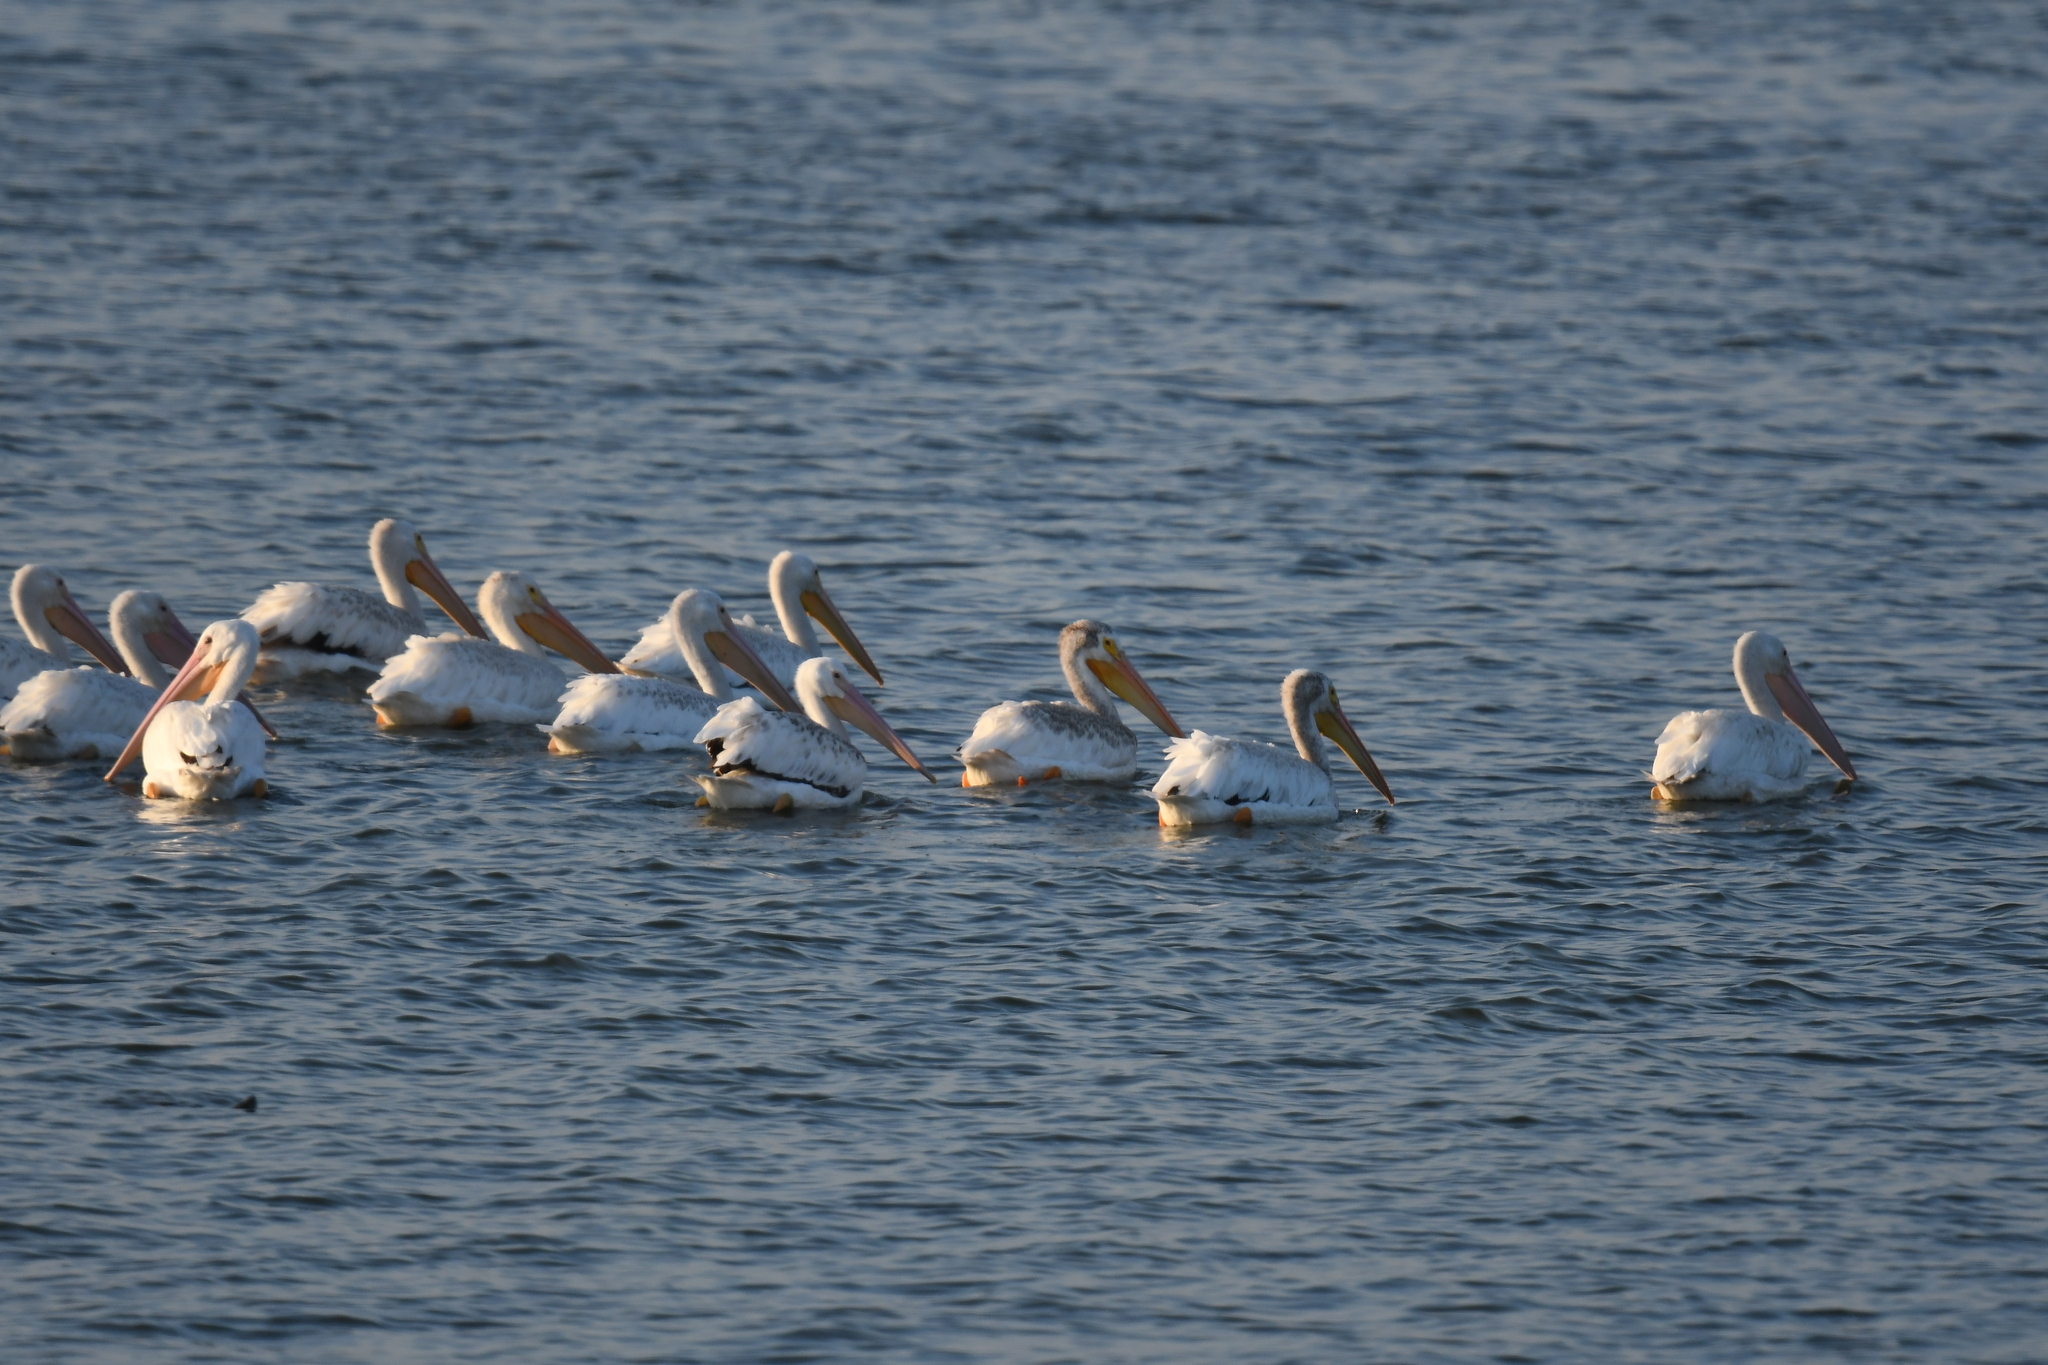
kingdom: Animalia
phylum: Chordata
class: Aves
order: Pelecaniformes
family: Pelecanidae
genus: Pelecanus
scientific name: Pelecanus erythrorhynchos
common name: American white pelican
